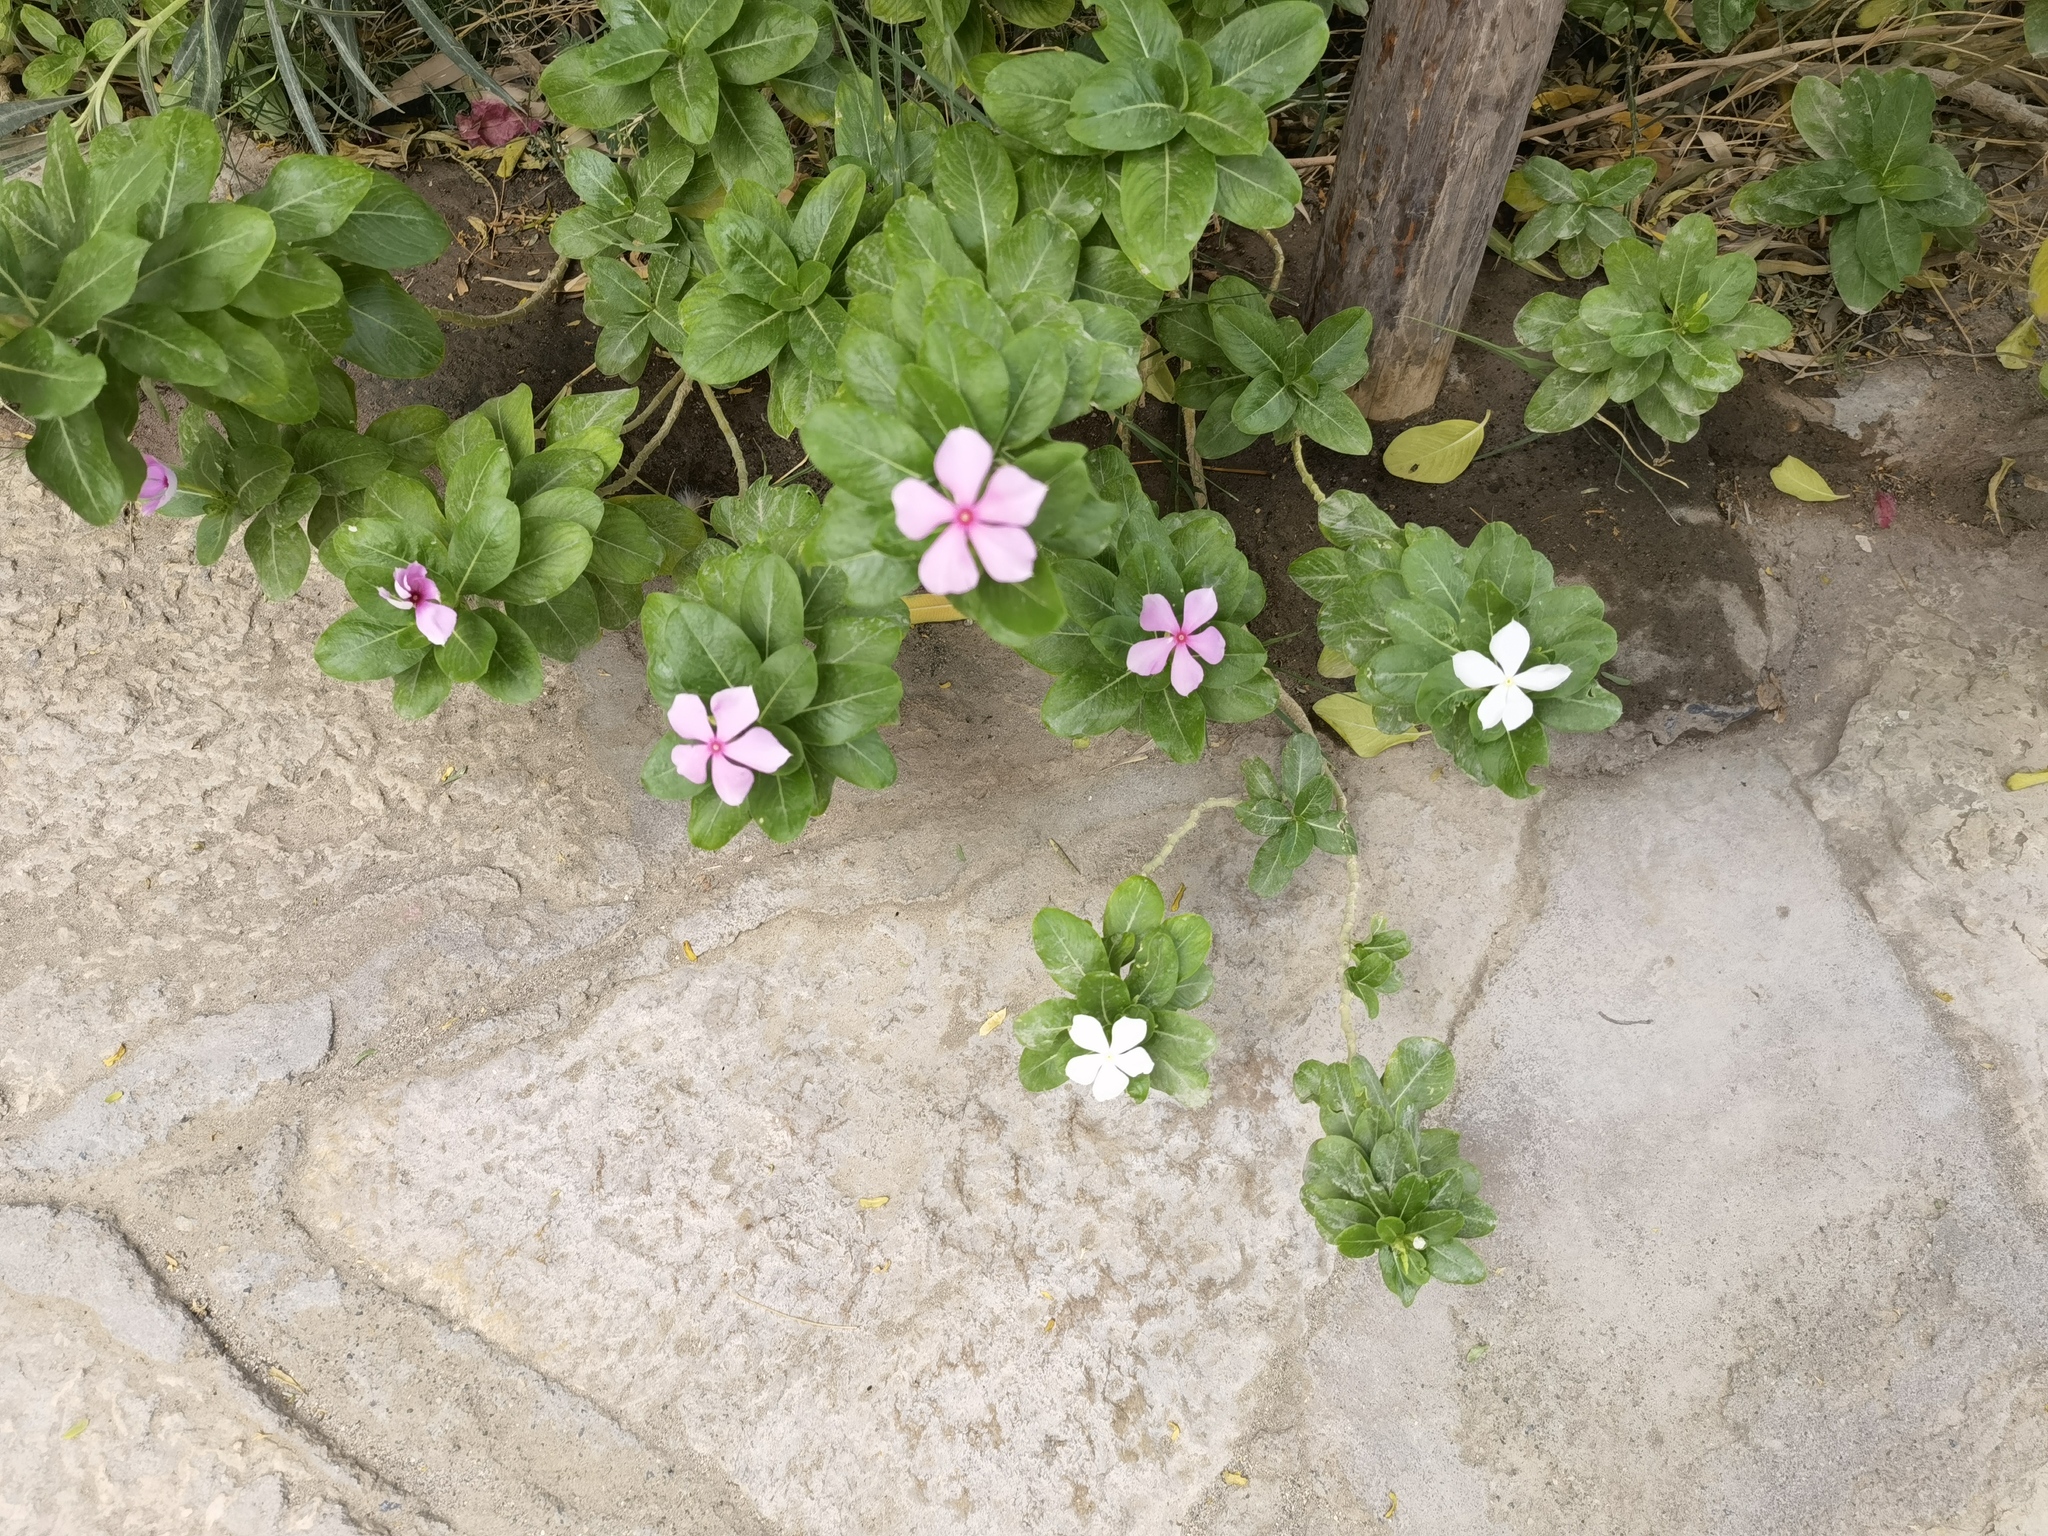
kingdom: Plantae
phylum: Tracheophyta
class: Magnoliopsida
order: Gentianales
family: Apocynaceae
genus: Catharanthus
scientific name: Catharanthus roseus
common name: Madagascar periwinkle
